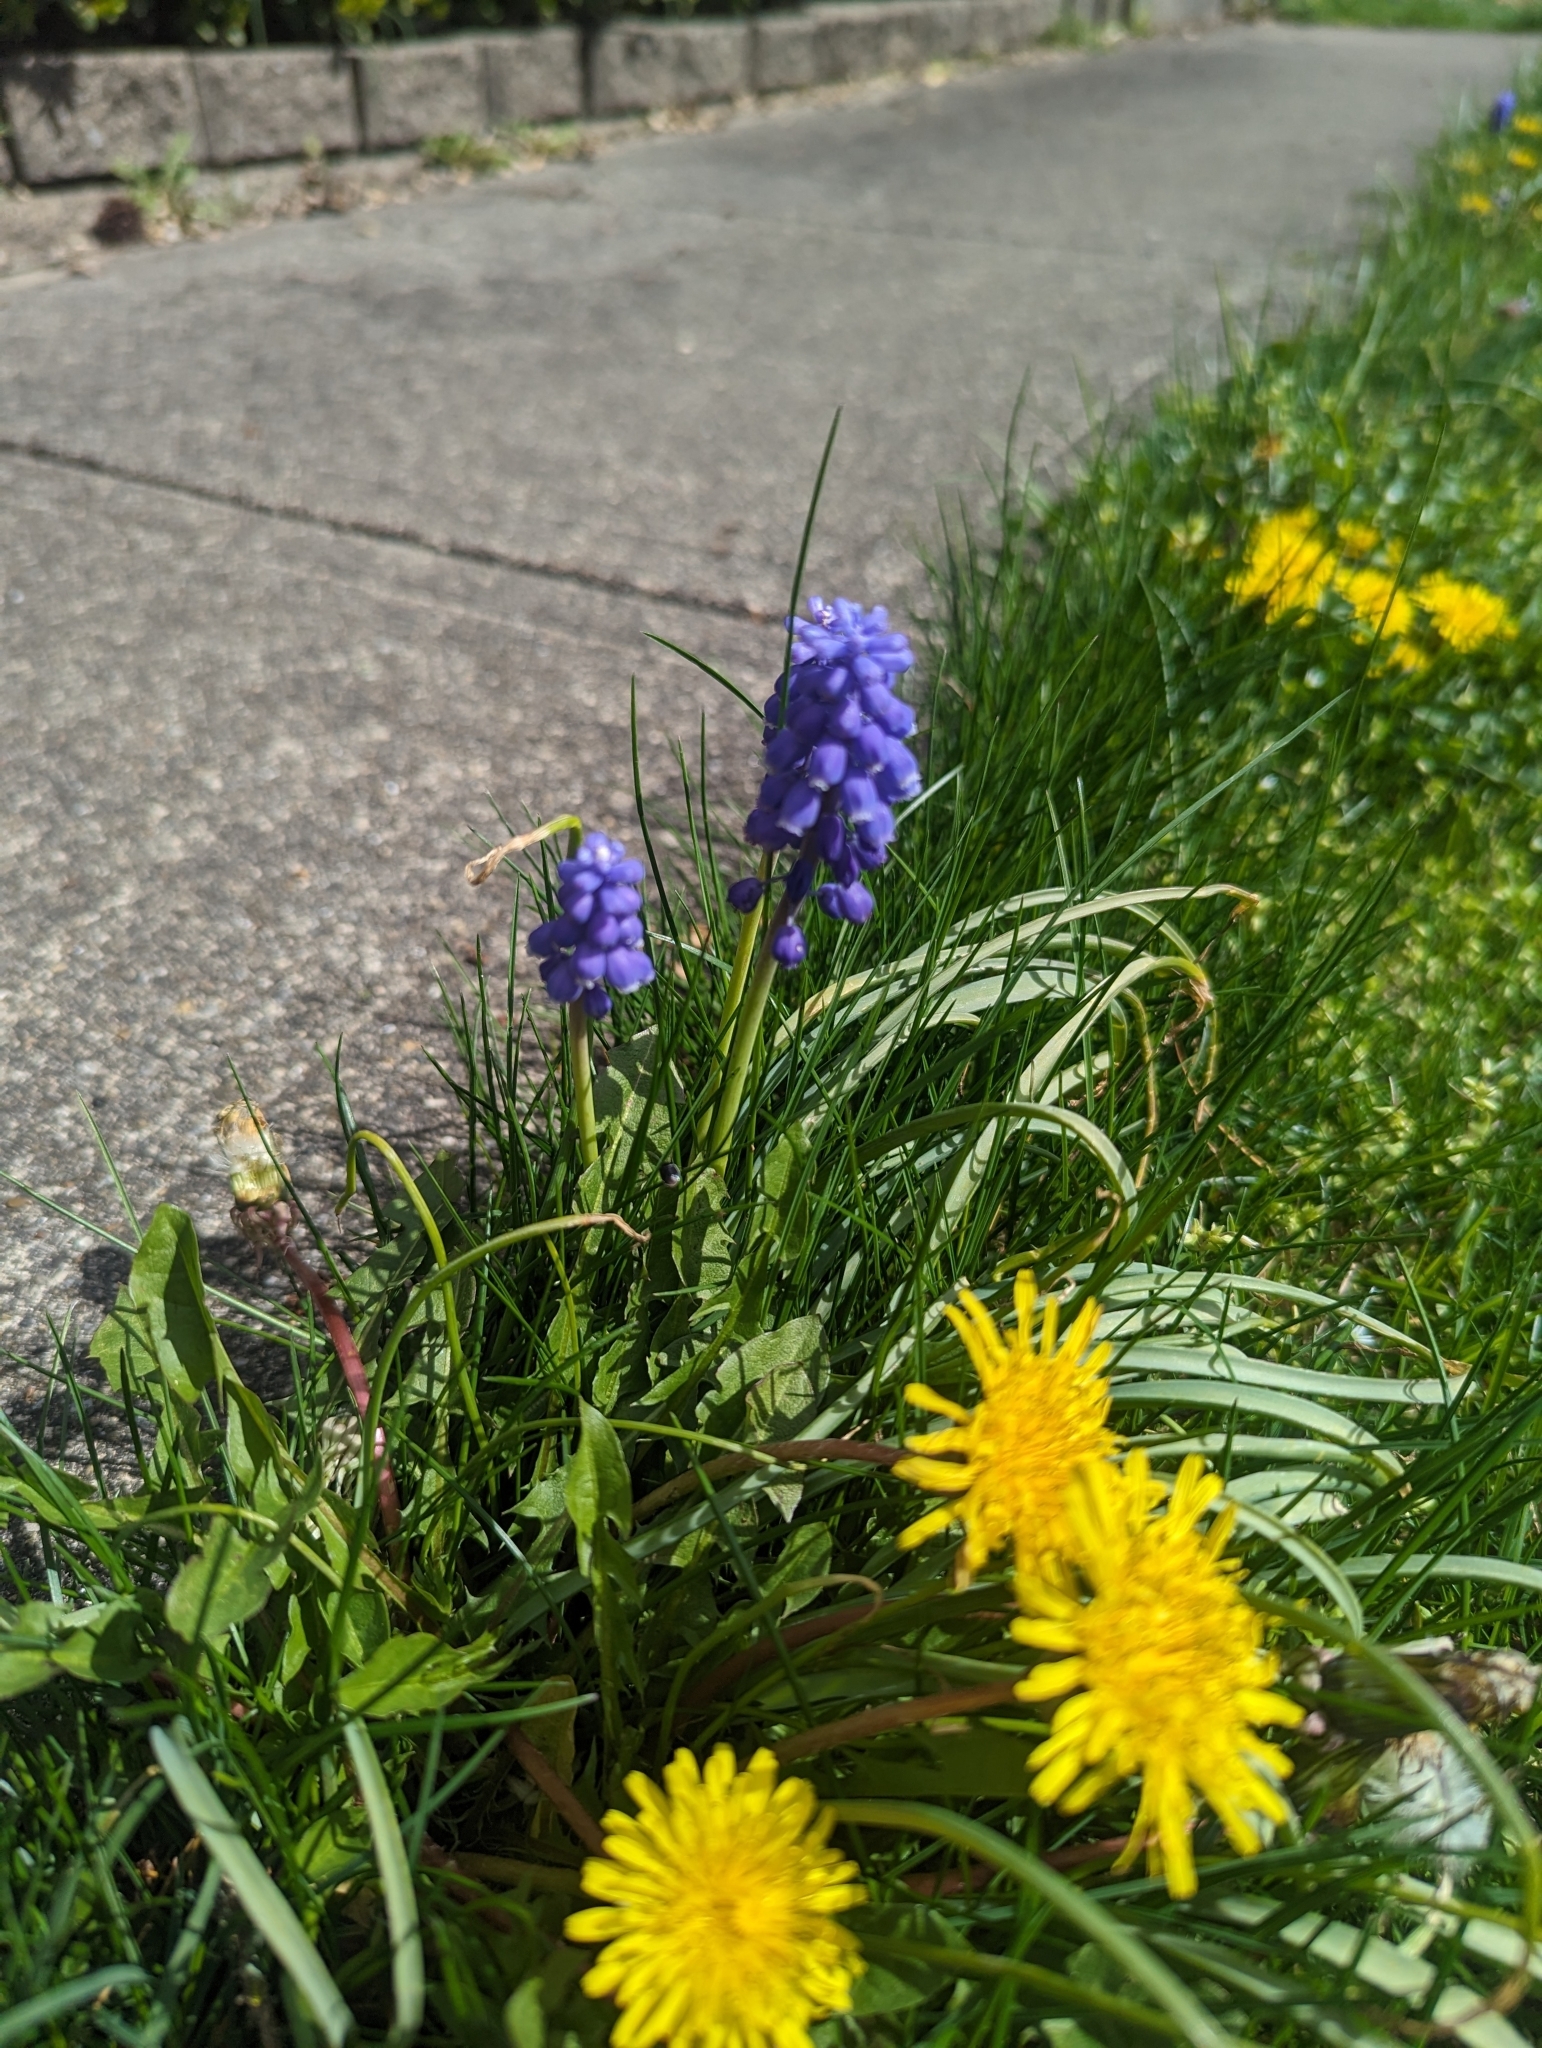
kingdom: Plantae
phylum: Tracheophyta
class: Liliopsida
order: Asparagales
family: Asparagaceae
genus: Muscari
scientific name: Muscari neglectum
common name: Grape-hyacinth
